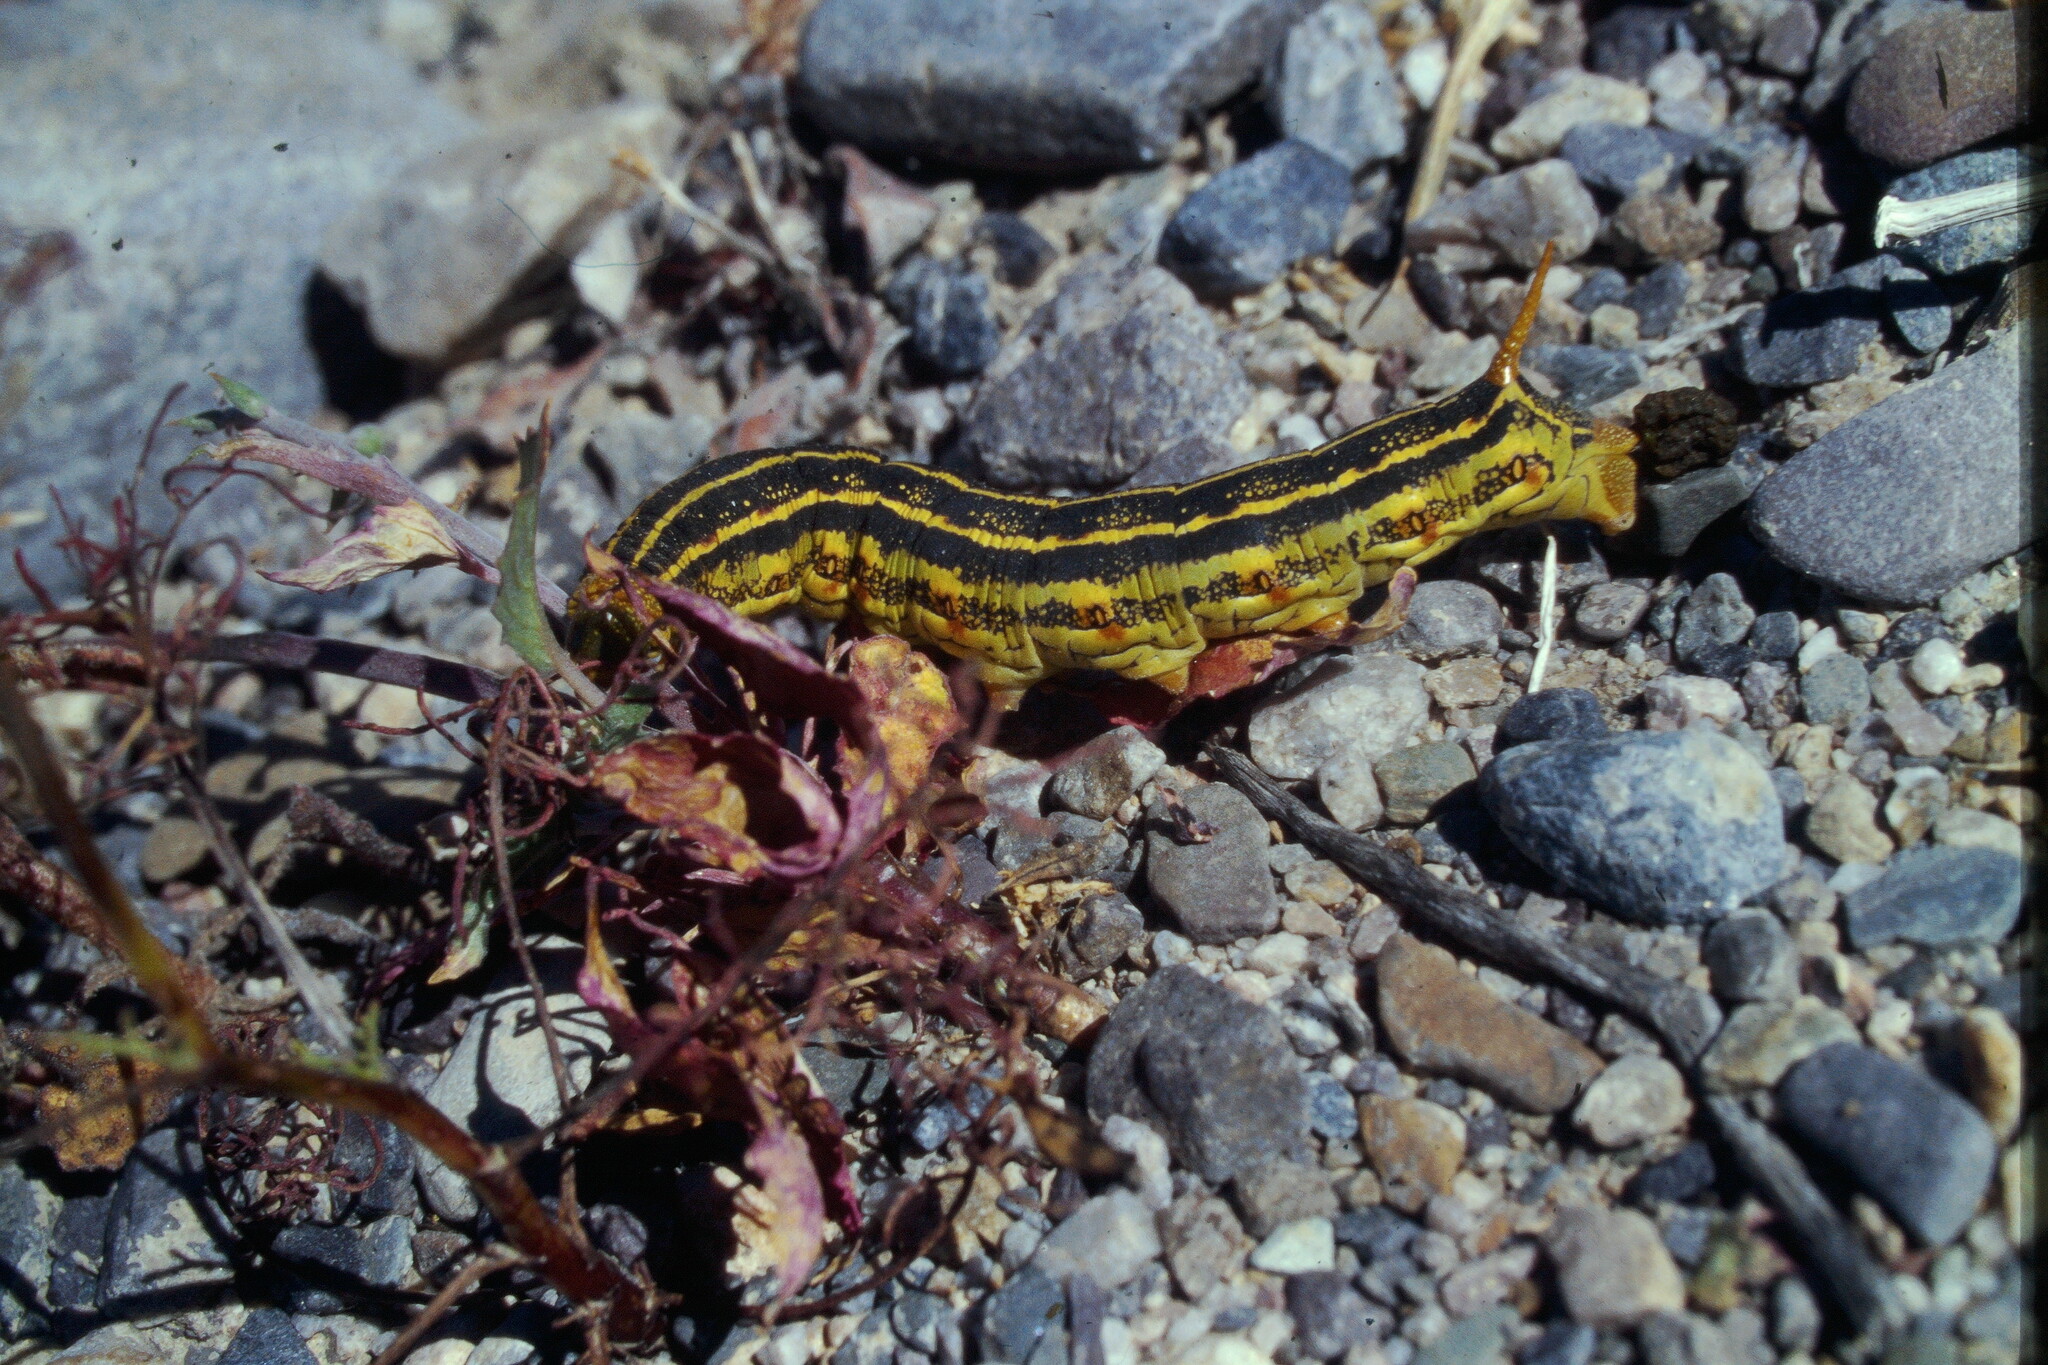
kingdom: Animalia
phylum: Arthropoda
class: Insecta
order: Lepidoptera
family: Sphingidae
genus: Hyles
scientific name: Hyles lineata
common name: White-lined sphinx
